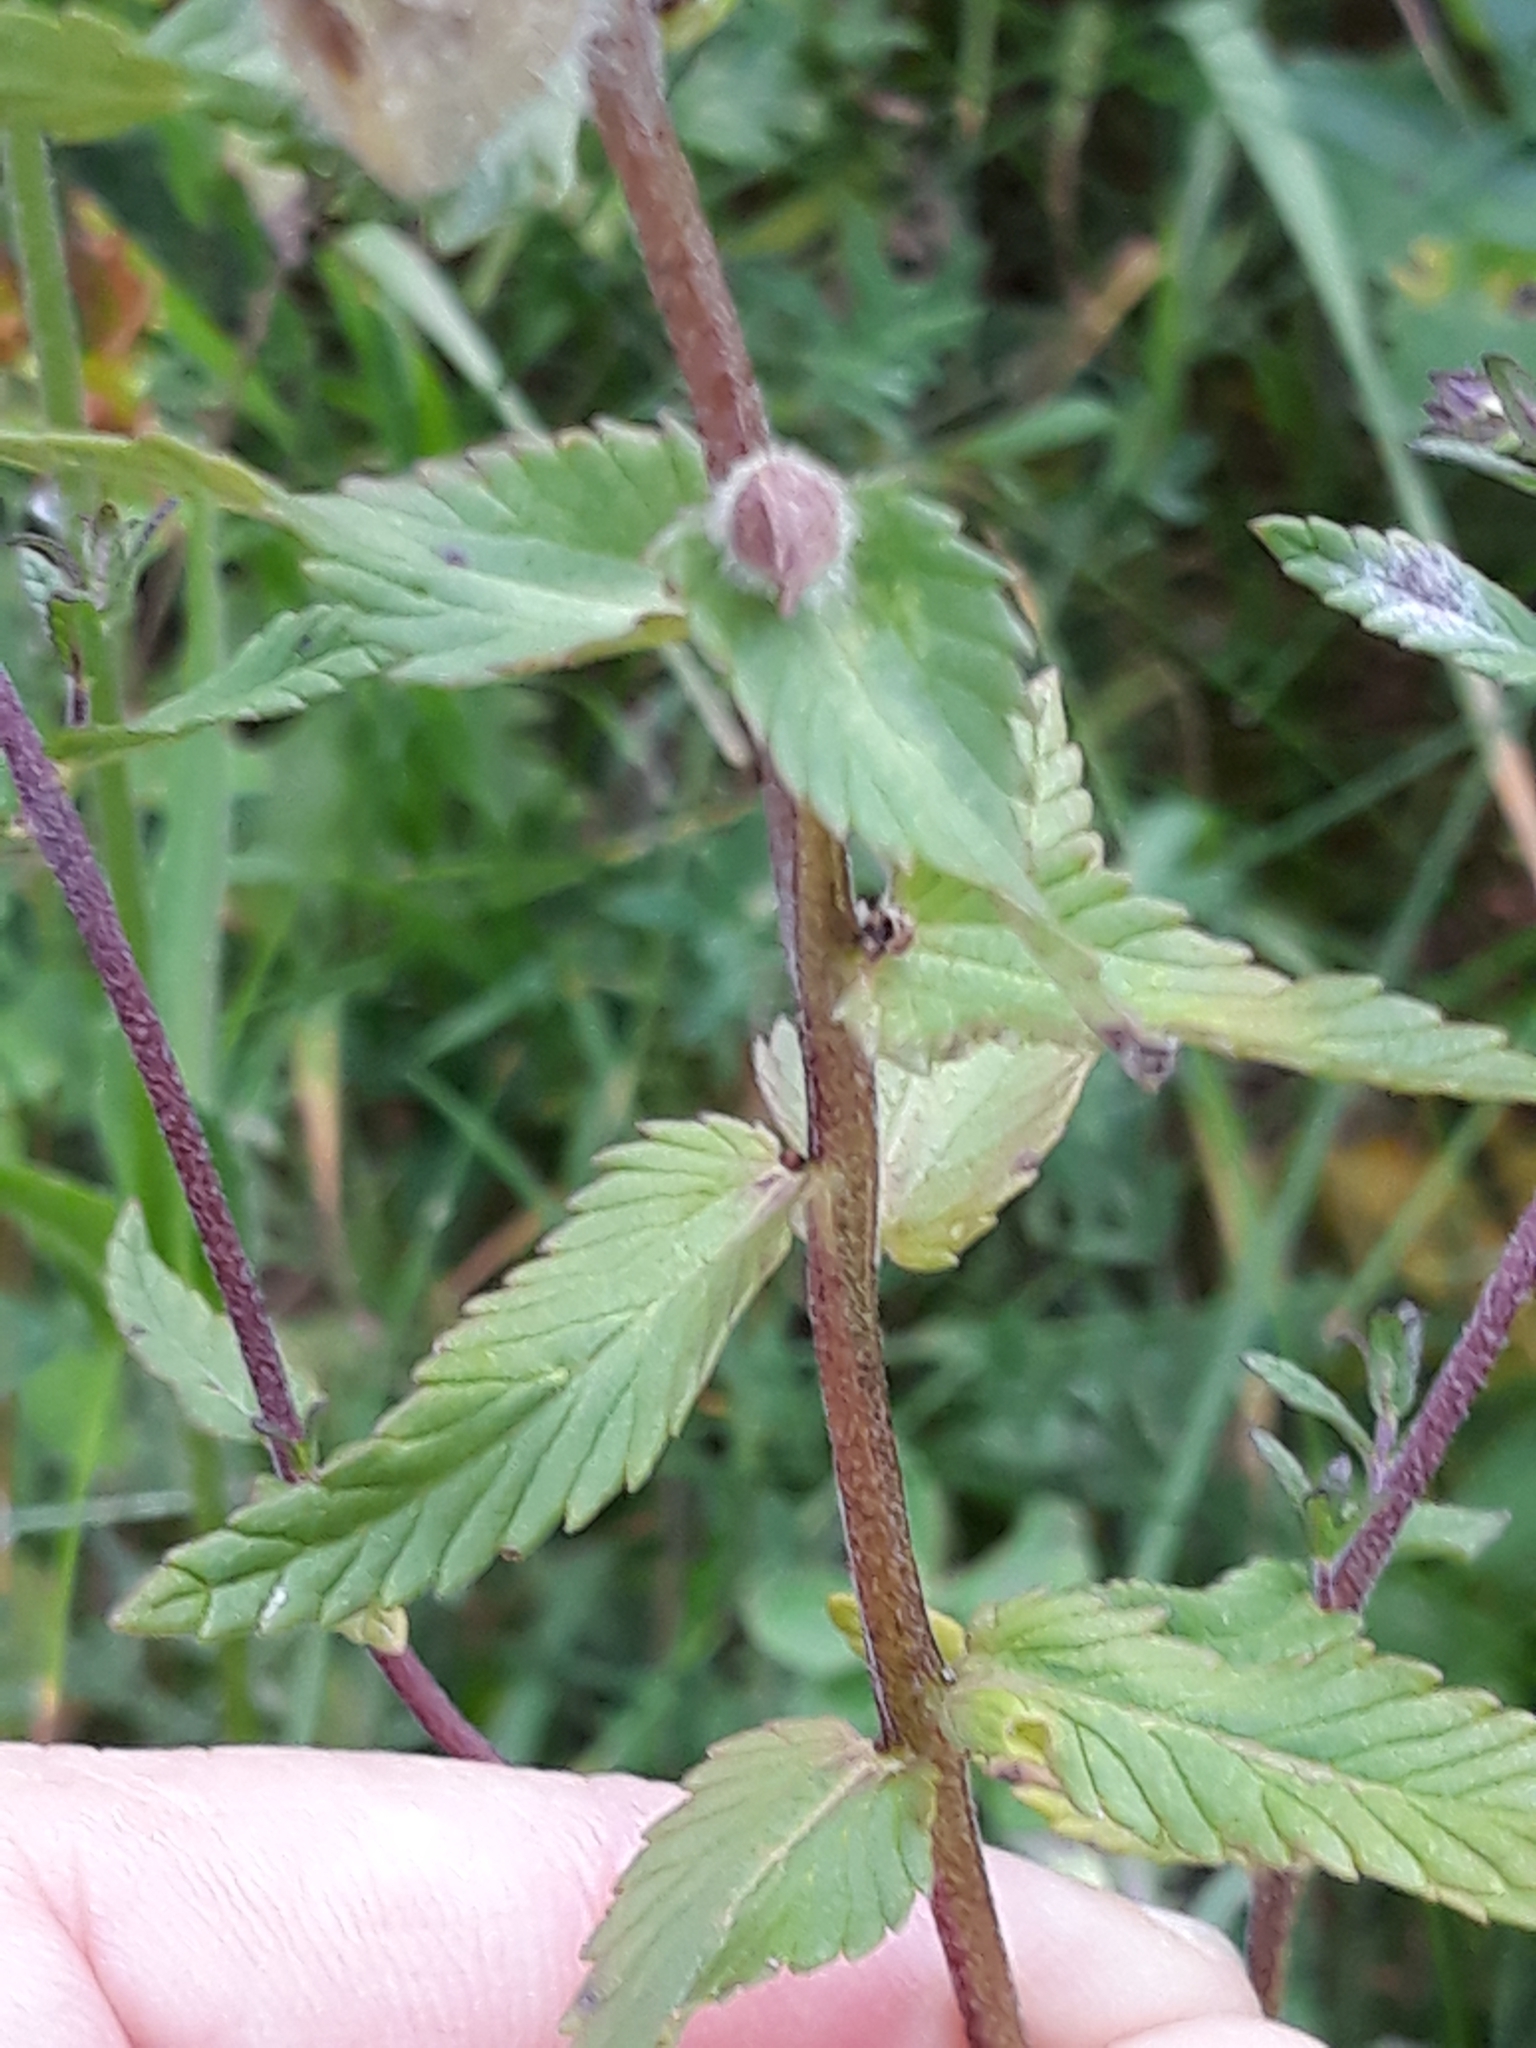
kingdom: Plantae
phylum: Tracheophyta
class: Magnoliopsida
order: Lamiales
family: Orobanchaceae
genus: Rhinanthus
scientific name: Rhinanthus alectorolophus
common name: Greater yellow-rattle
